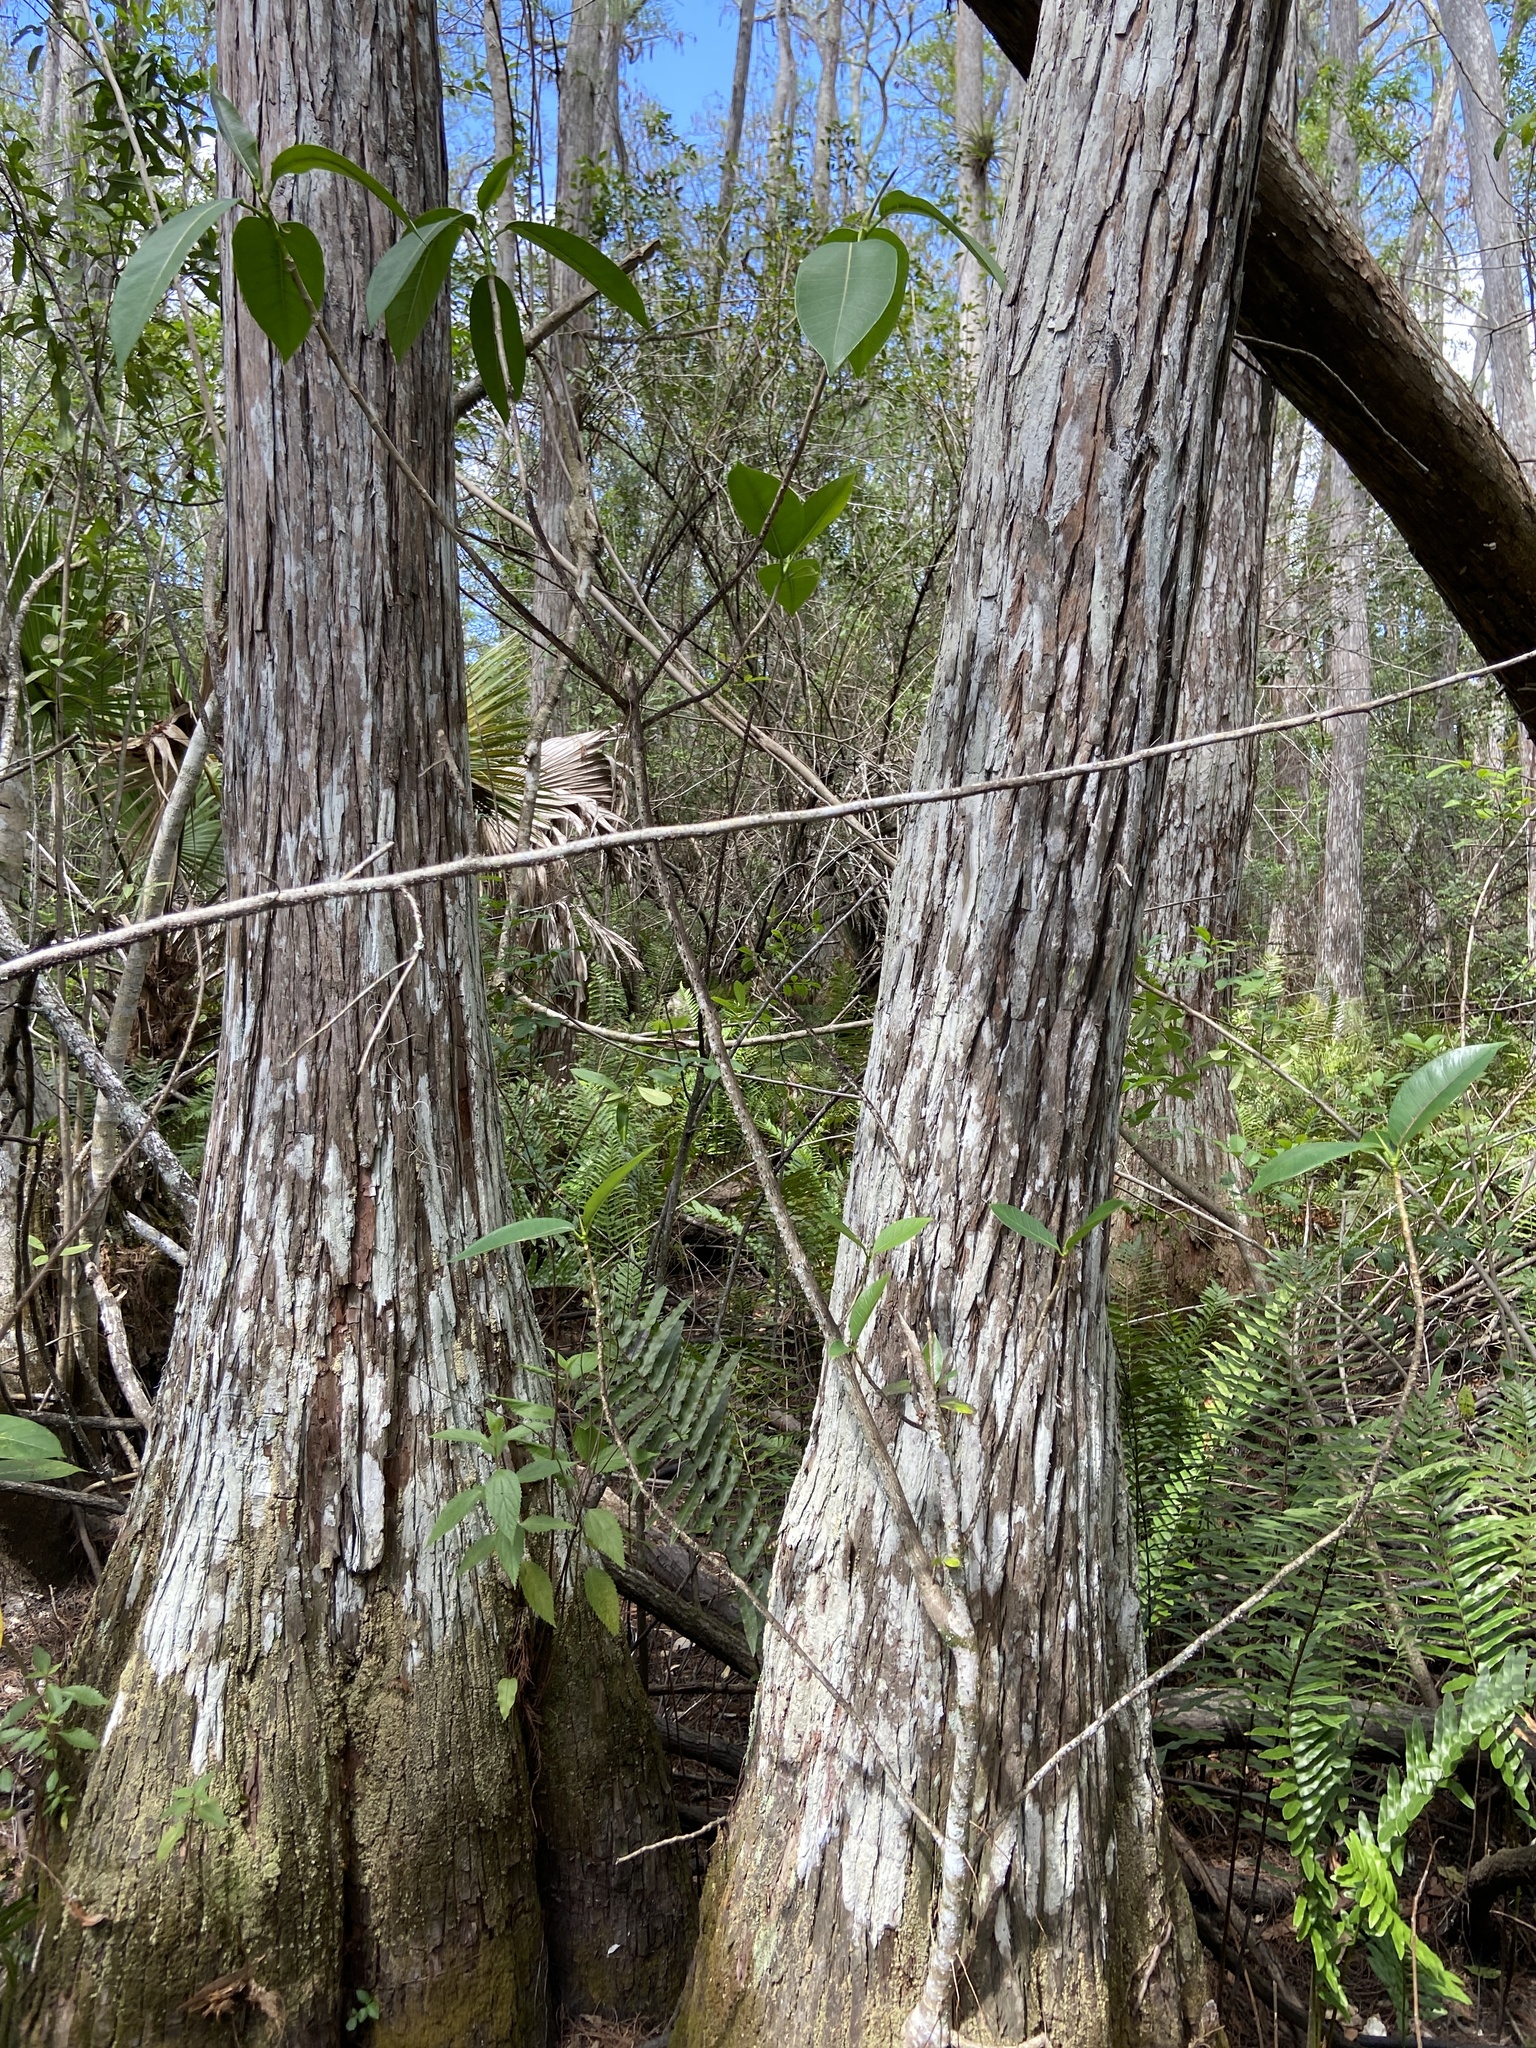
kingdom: Plantae
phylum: Tracheophyta
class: Magnoliopsida
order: Rosales
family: Moraceae
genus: Ficus
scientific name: Ficus aurea
